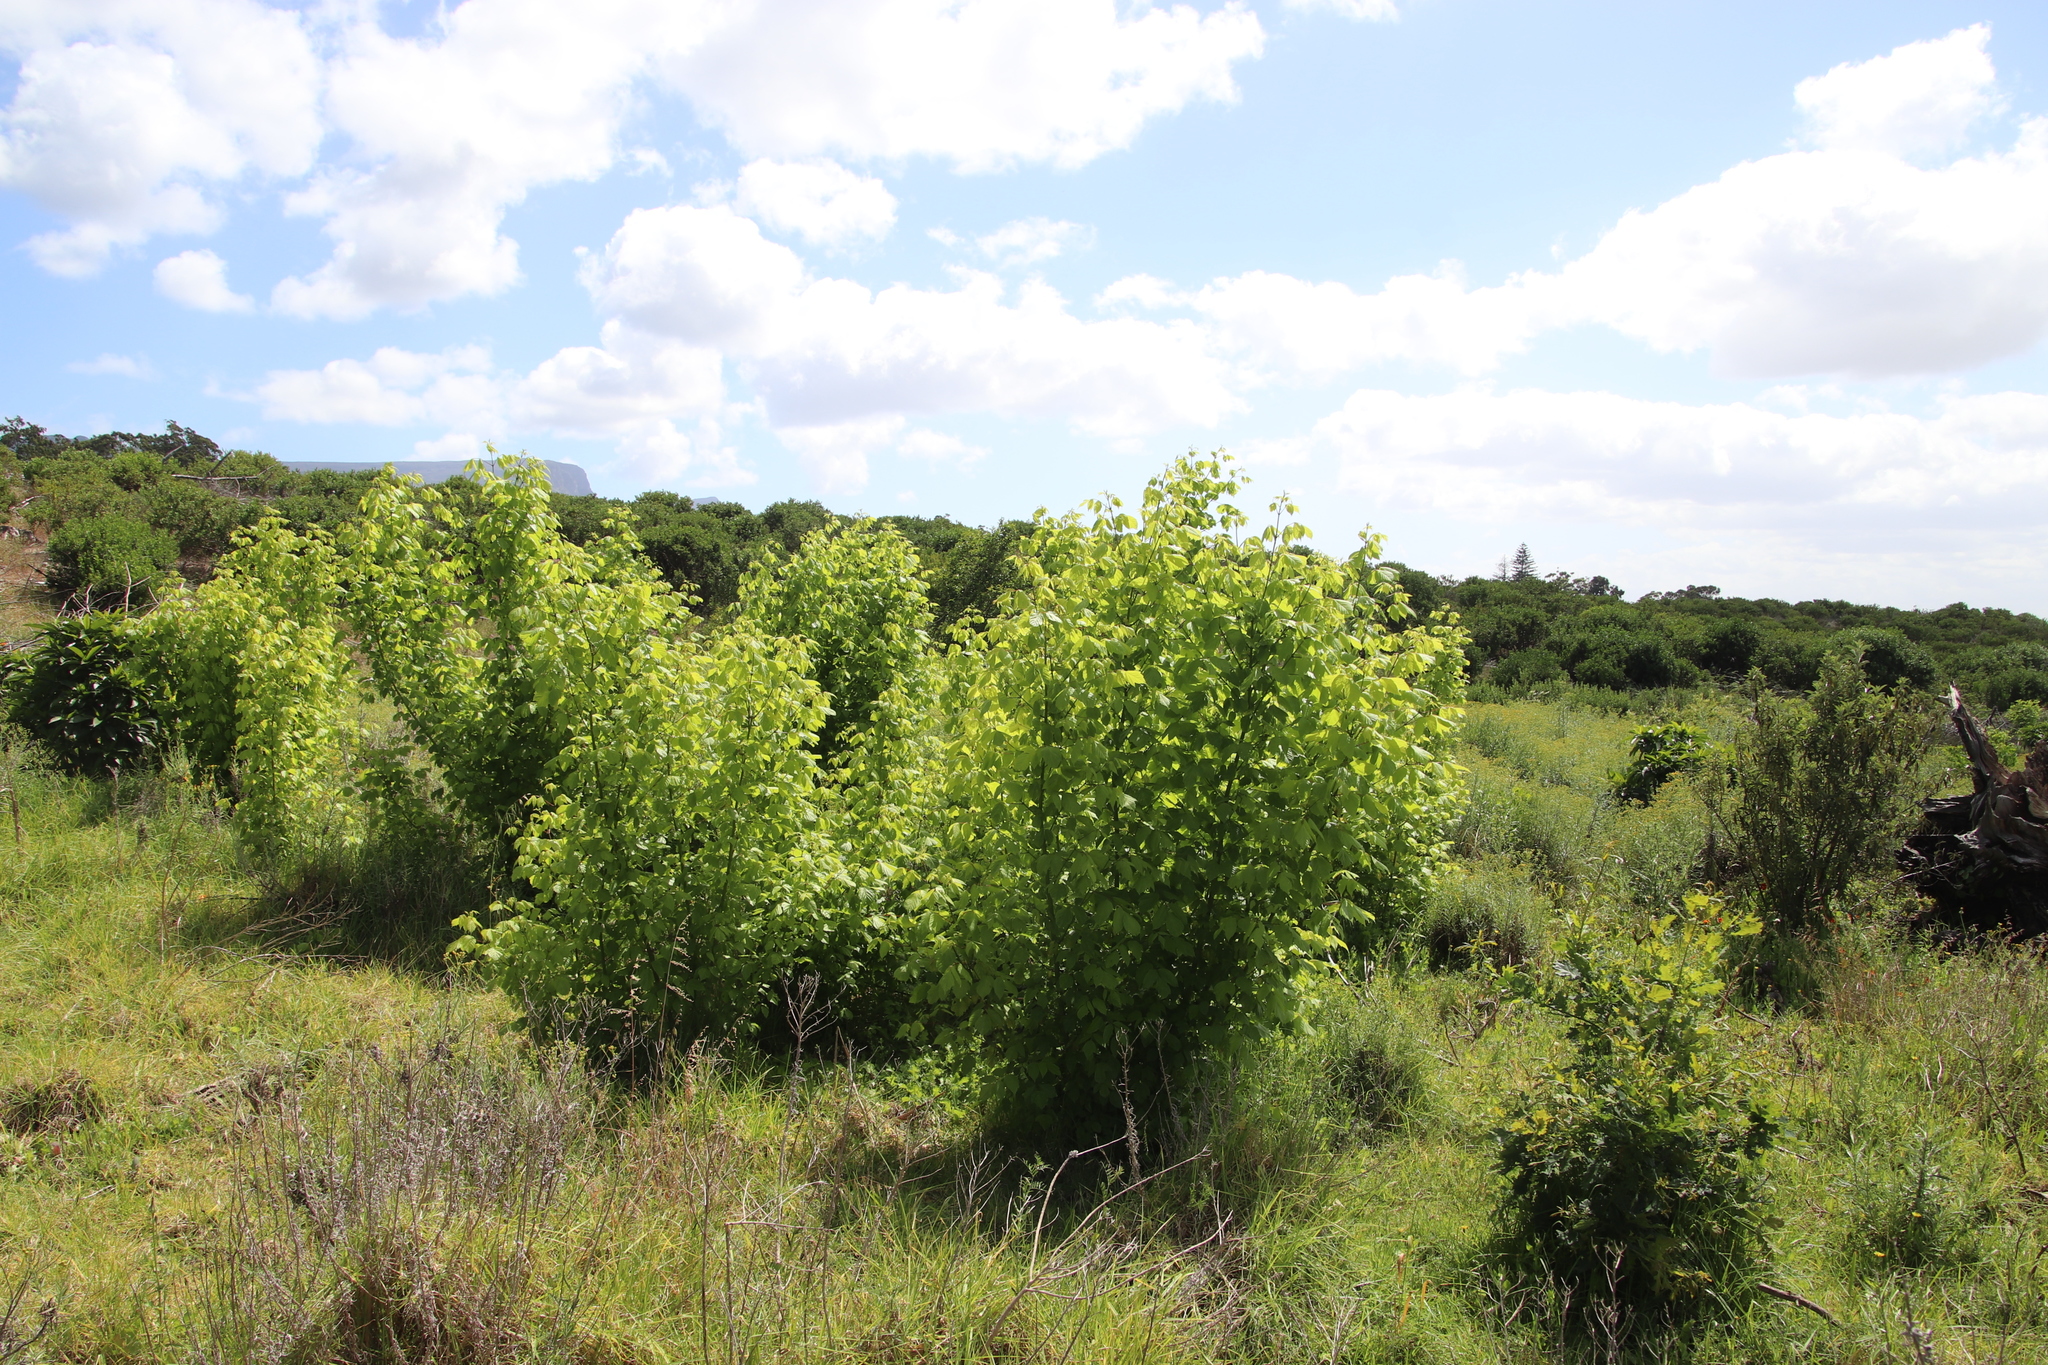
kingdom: Plantae
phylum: Tracheophyta
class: Magnoliopsida
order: Sapindales
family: Sapindaceae
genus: Acer
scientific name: Acer negundo
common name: Ashleaf maple
